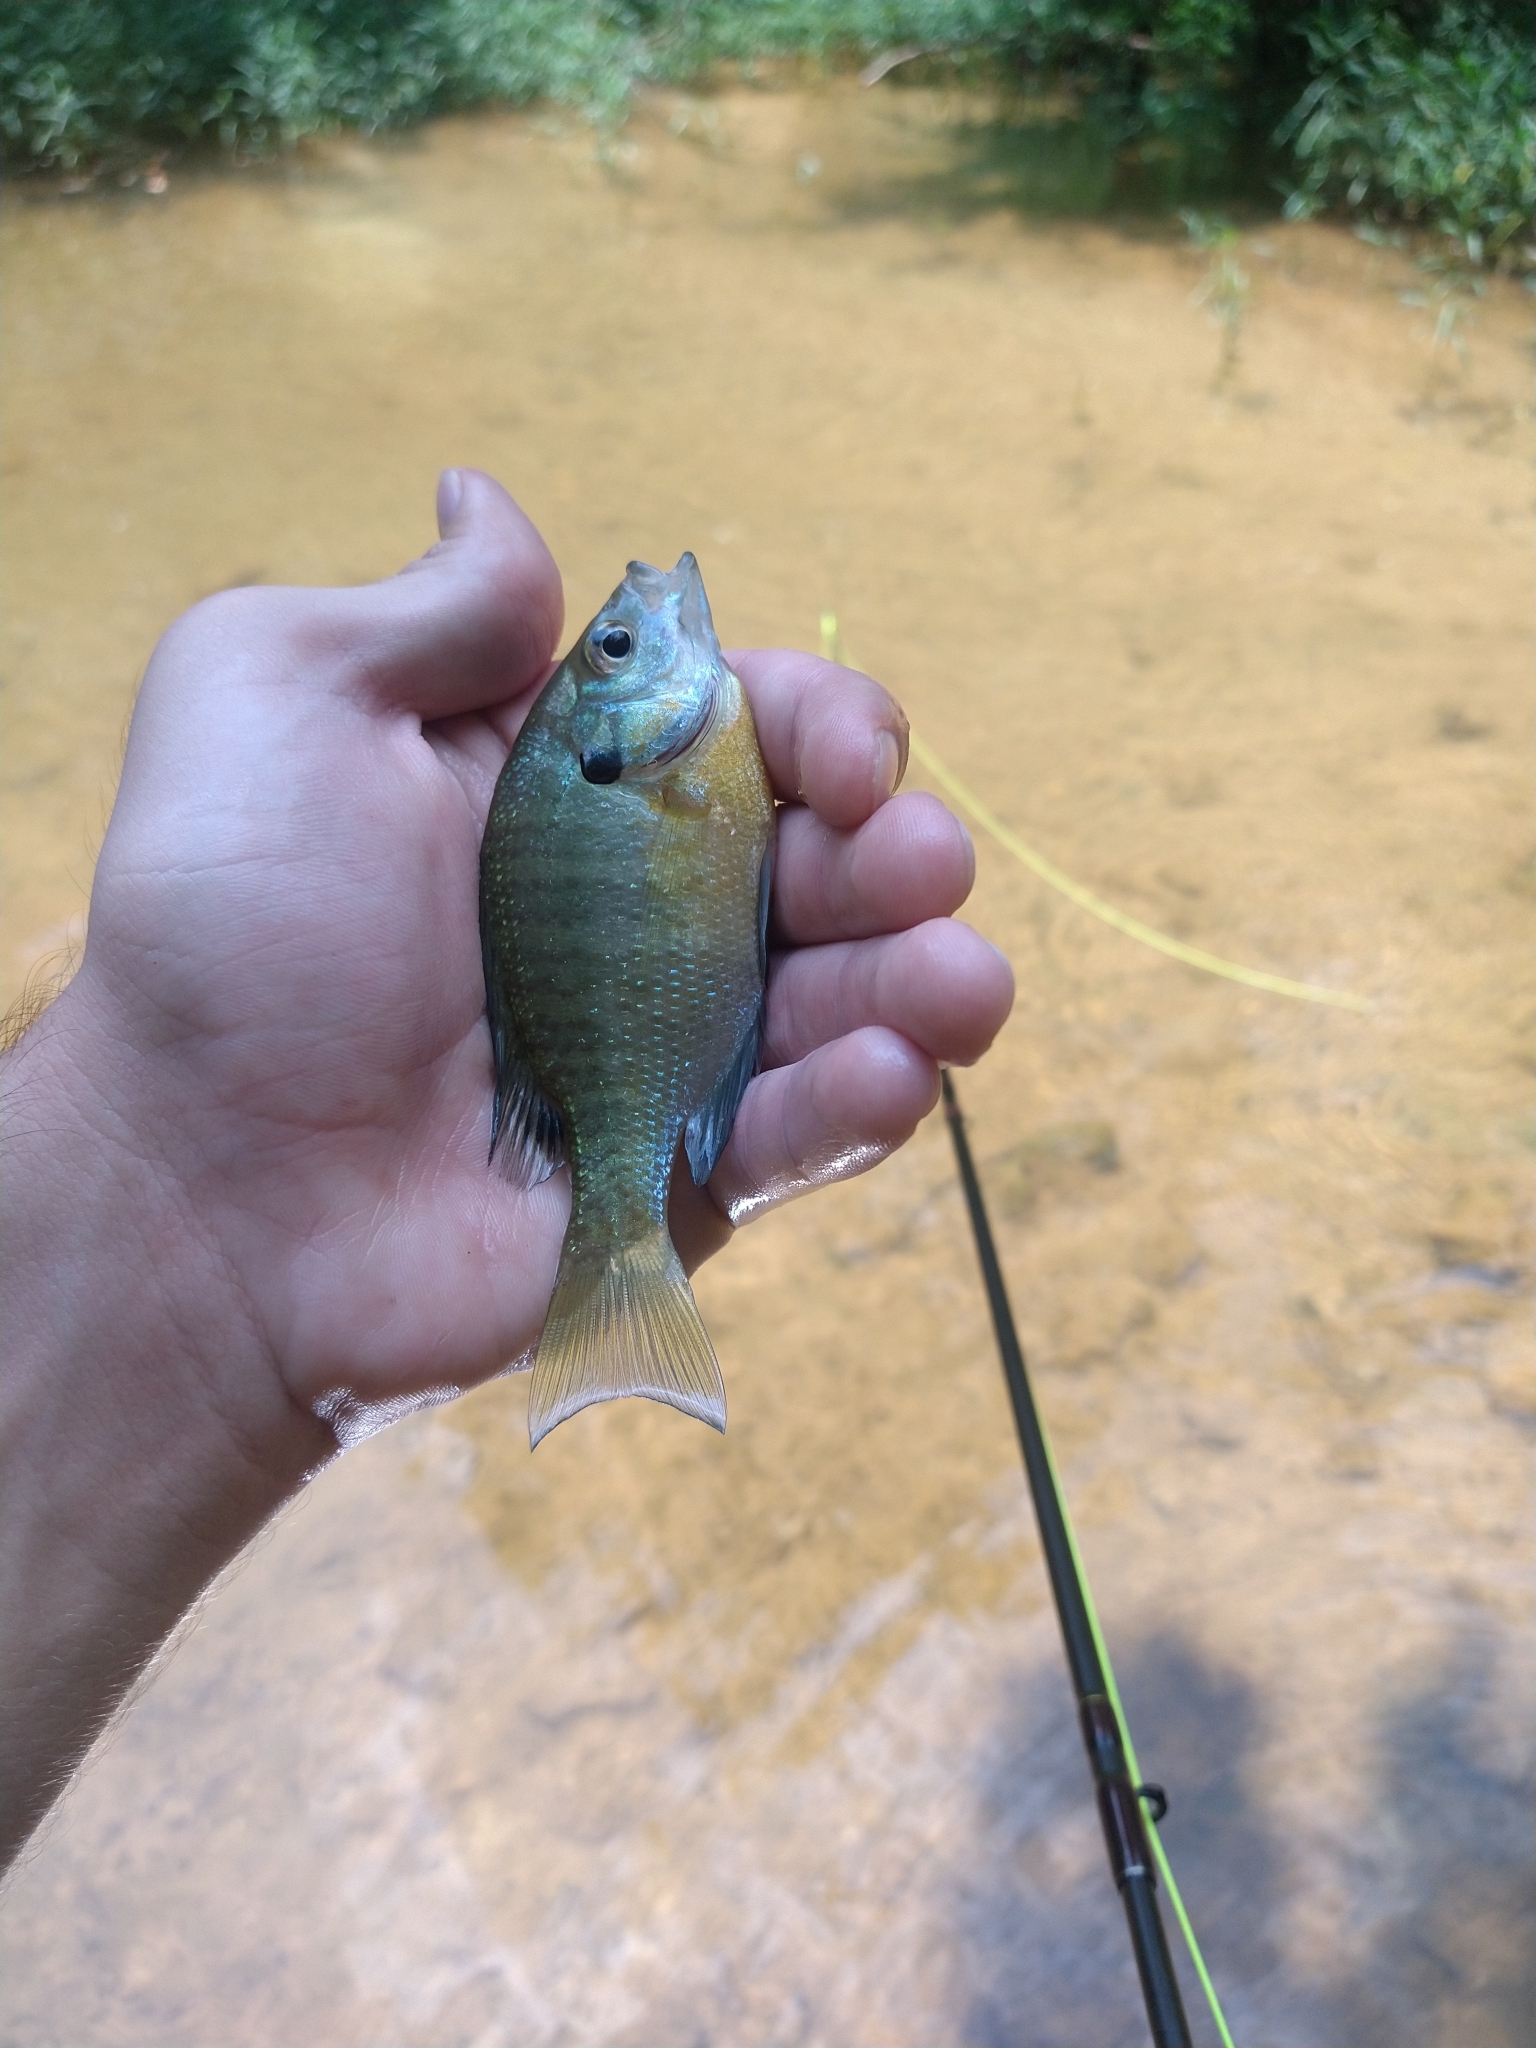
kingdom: Animalia
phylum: Chordata
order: Perciformes
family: Centrarchidae
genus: Lepomis
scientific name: Lepomis macrochirus
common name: Bluegill
